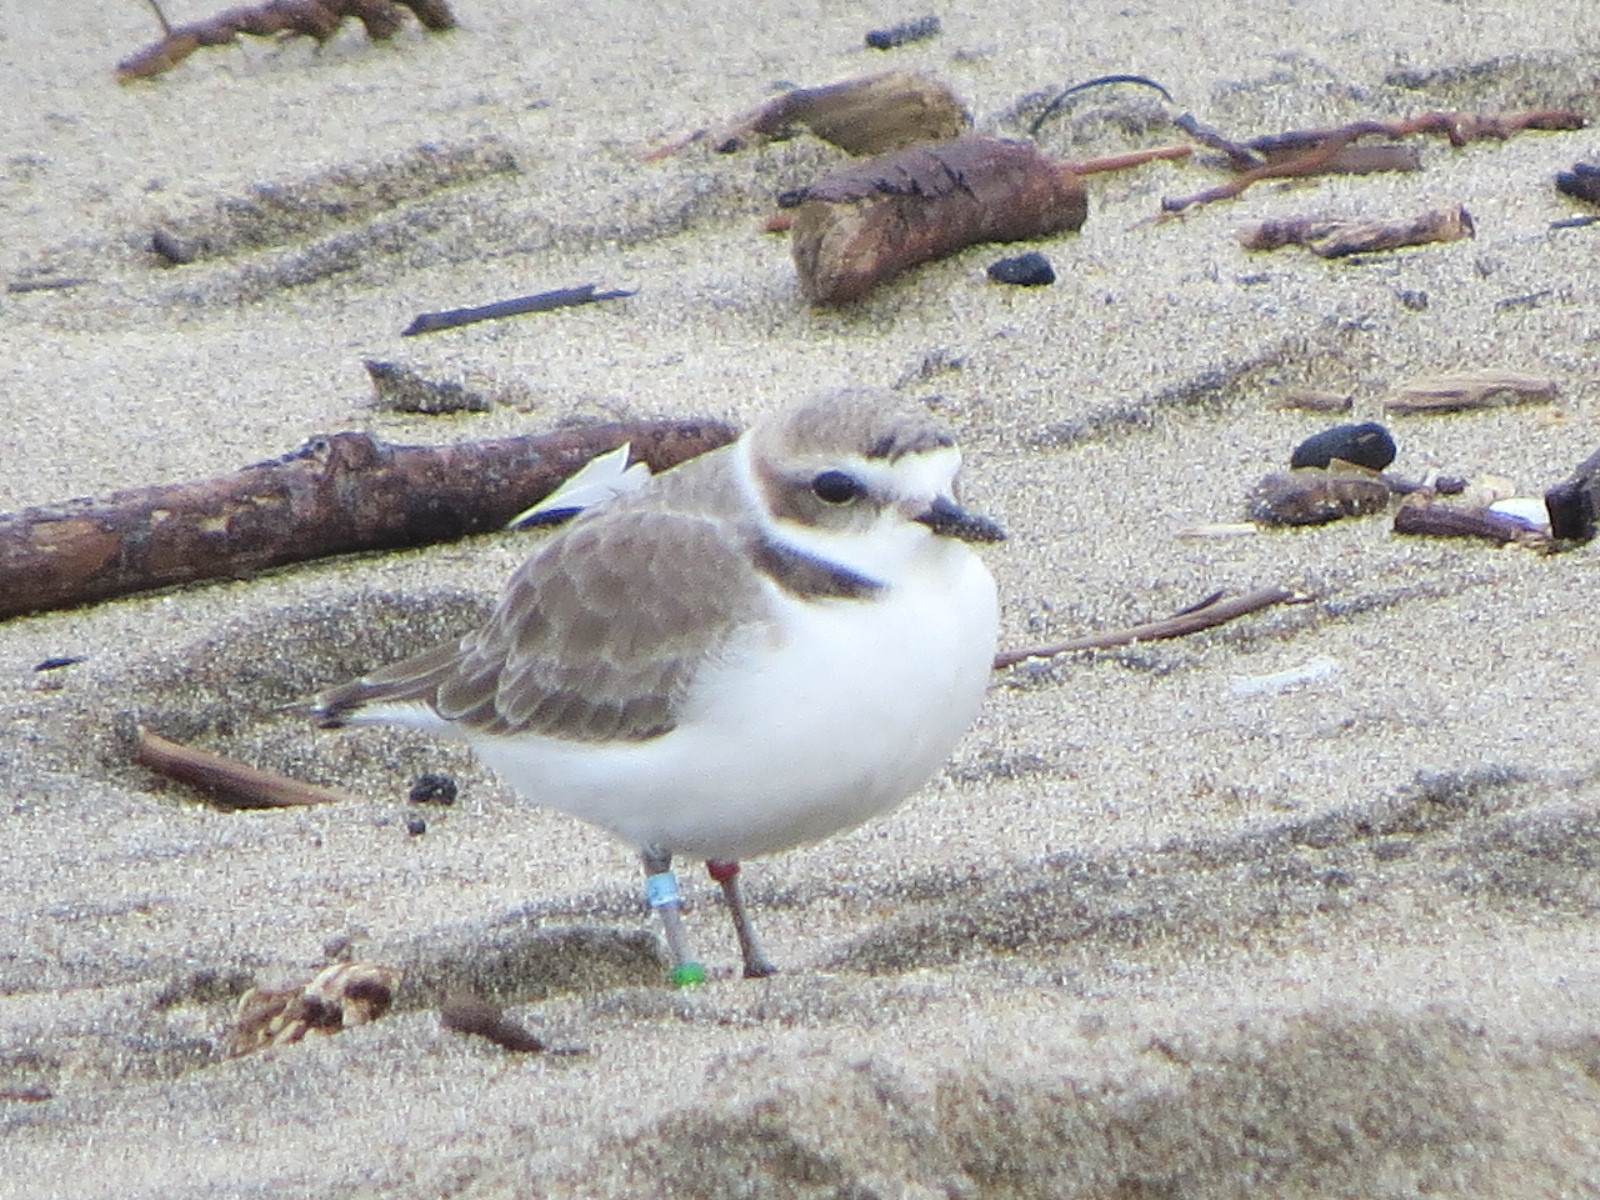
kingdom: Animalia
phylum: Chordata
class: Aves
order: Charadriiformes
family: Charadriidae
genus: Anarhynchus
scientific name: Anarhynchus
